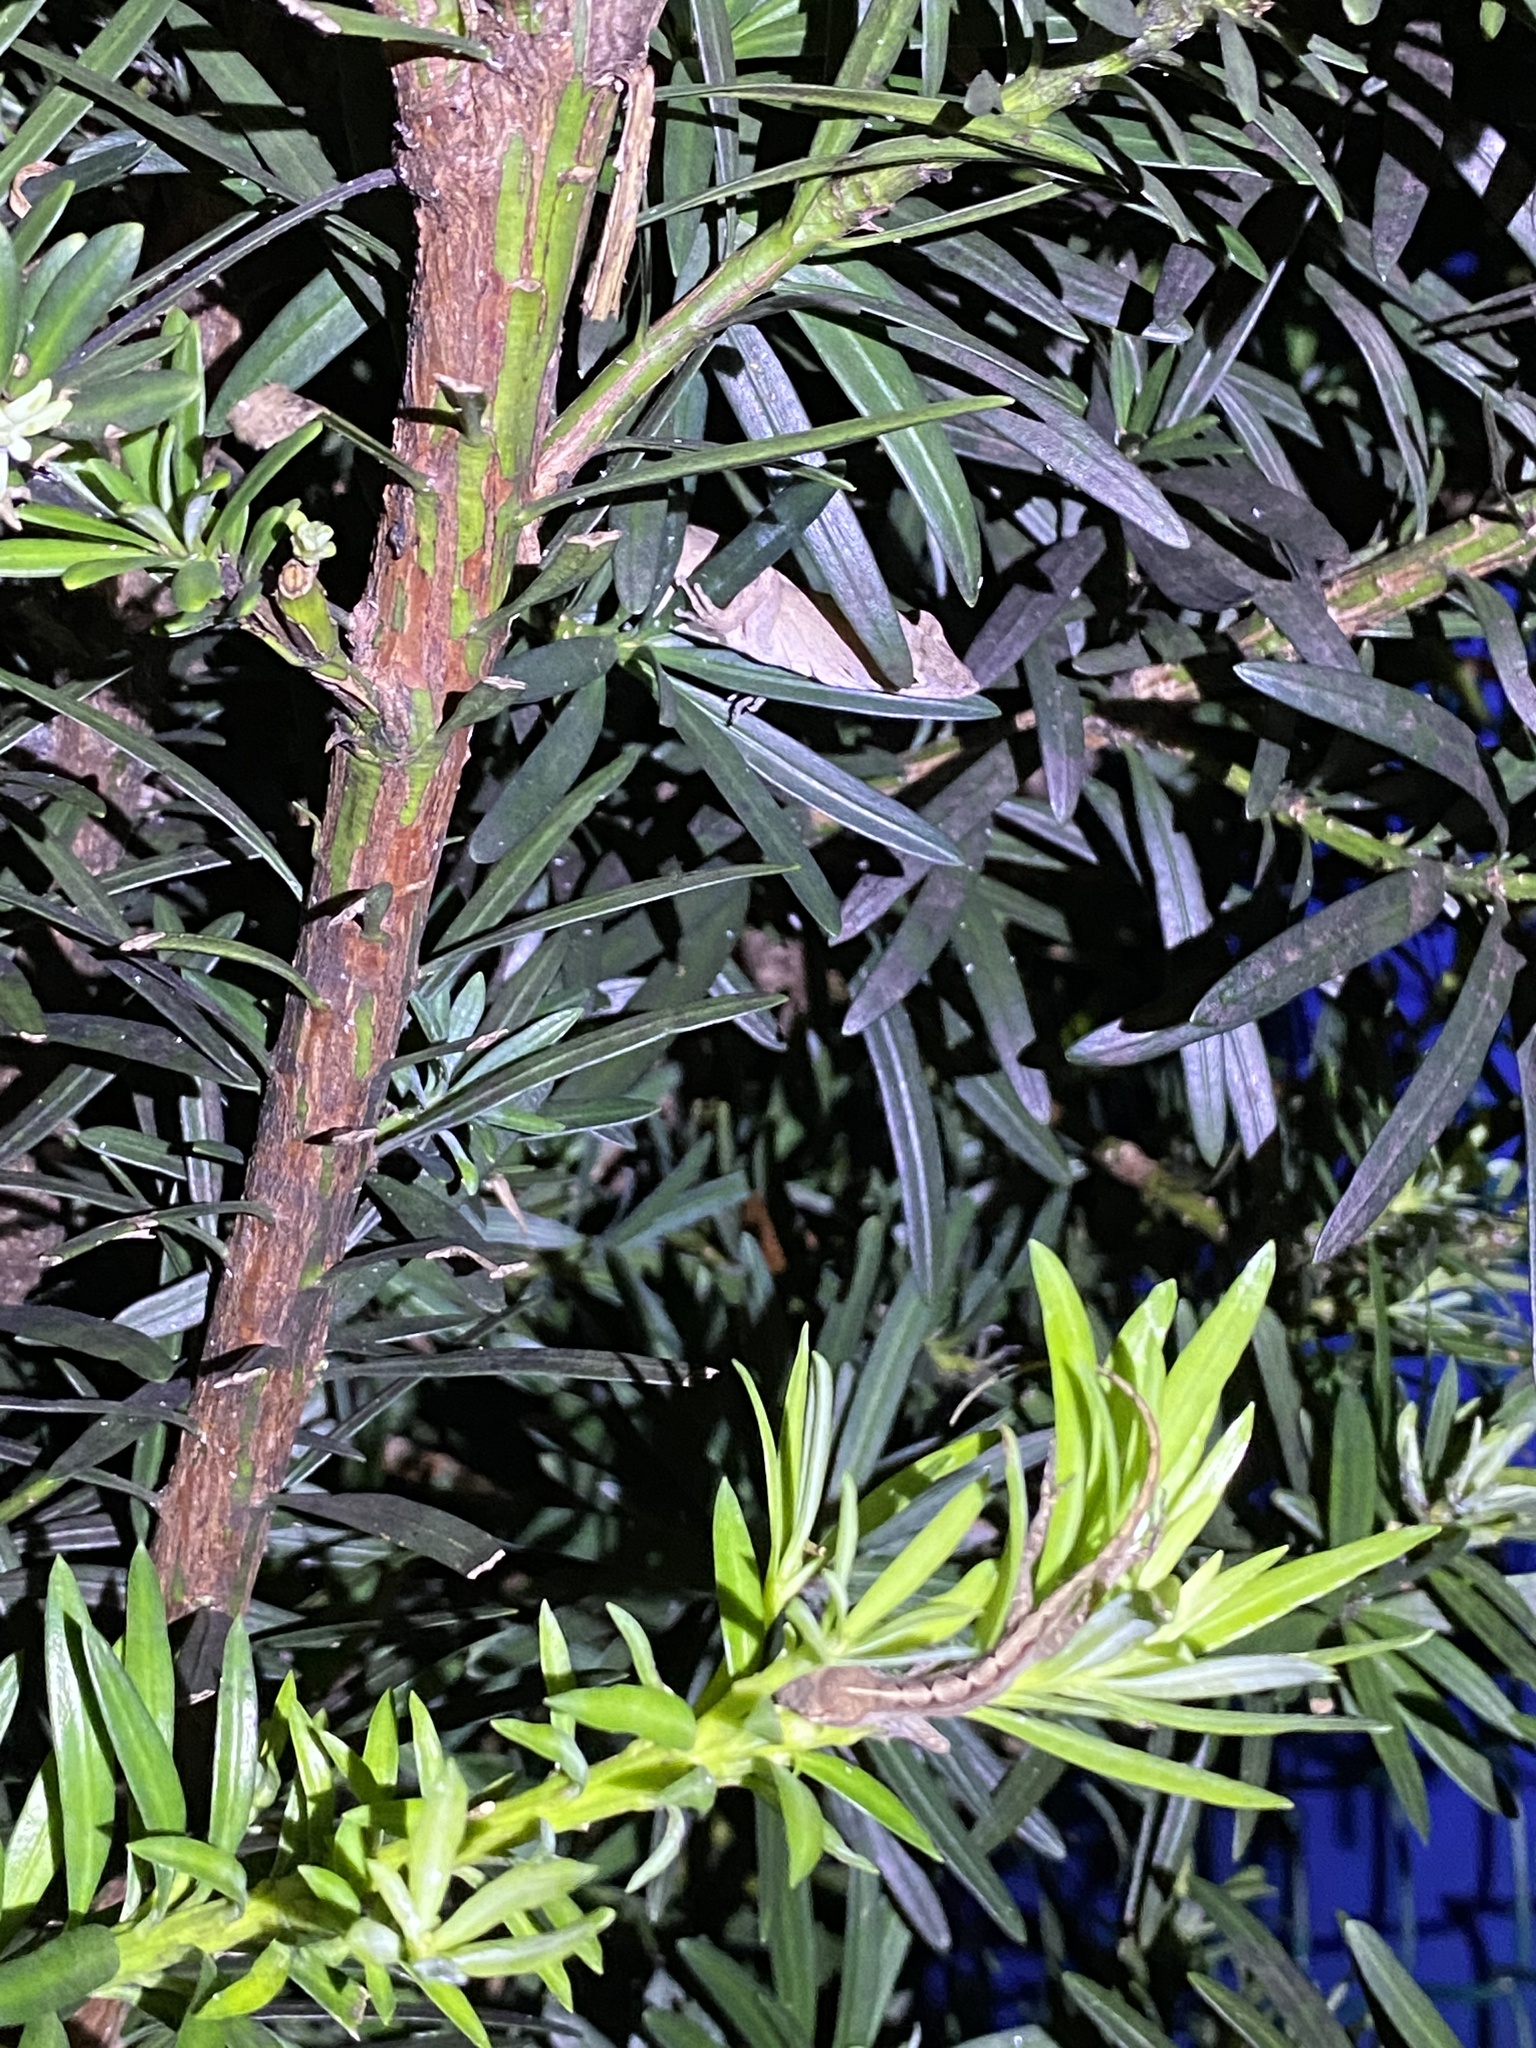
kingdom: Animalia
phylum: Chordata
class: Squamata
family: Dactyloidae
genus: Anolis
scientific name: Anolis sagrei
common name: Brown anole
